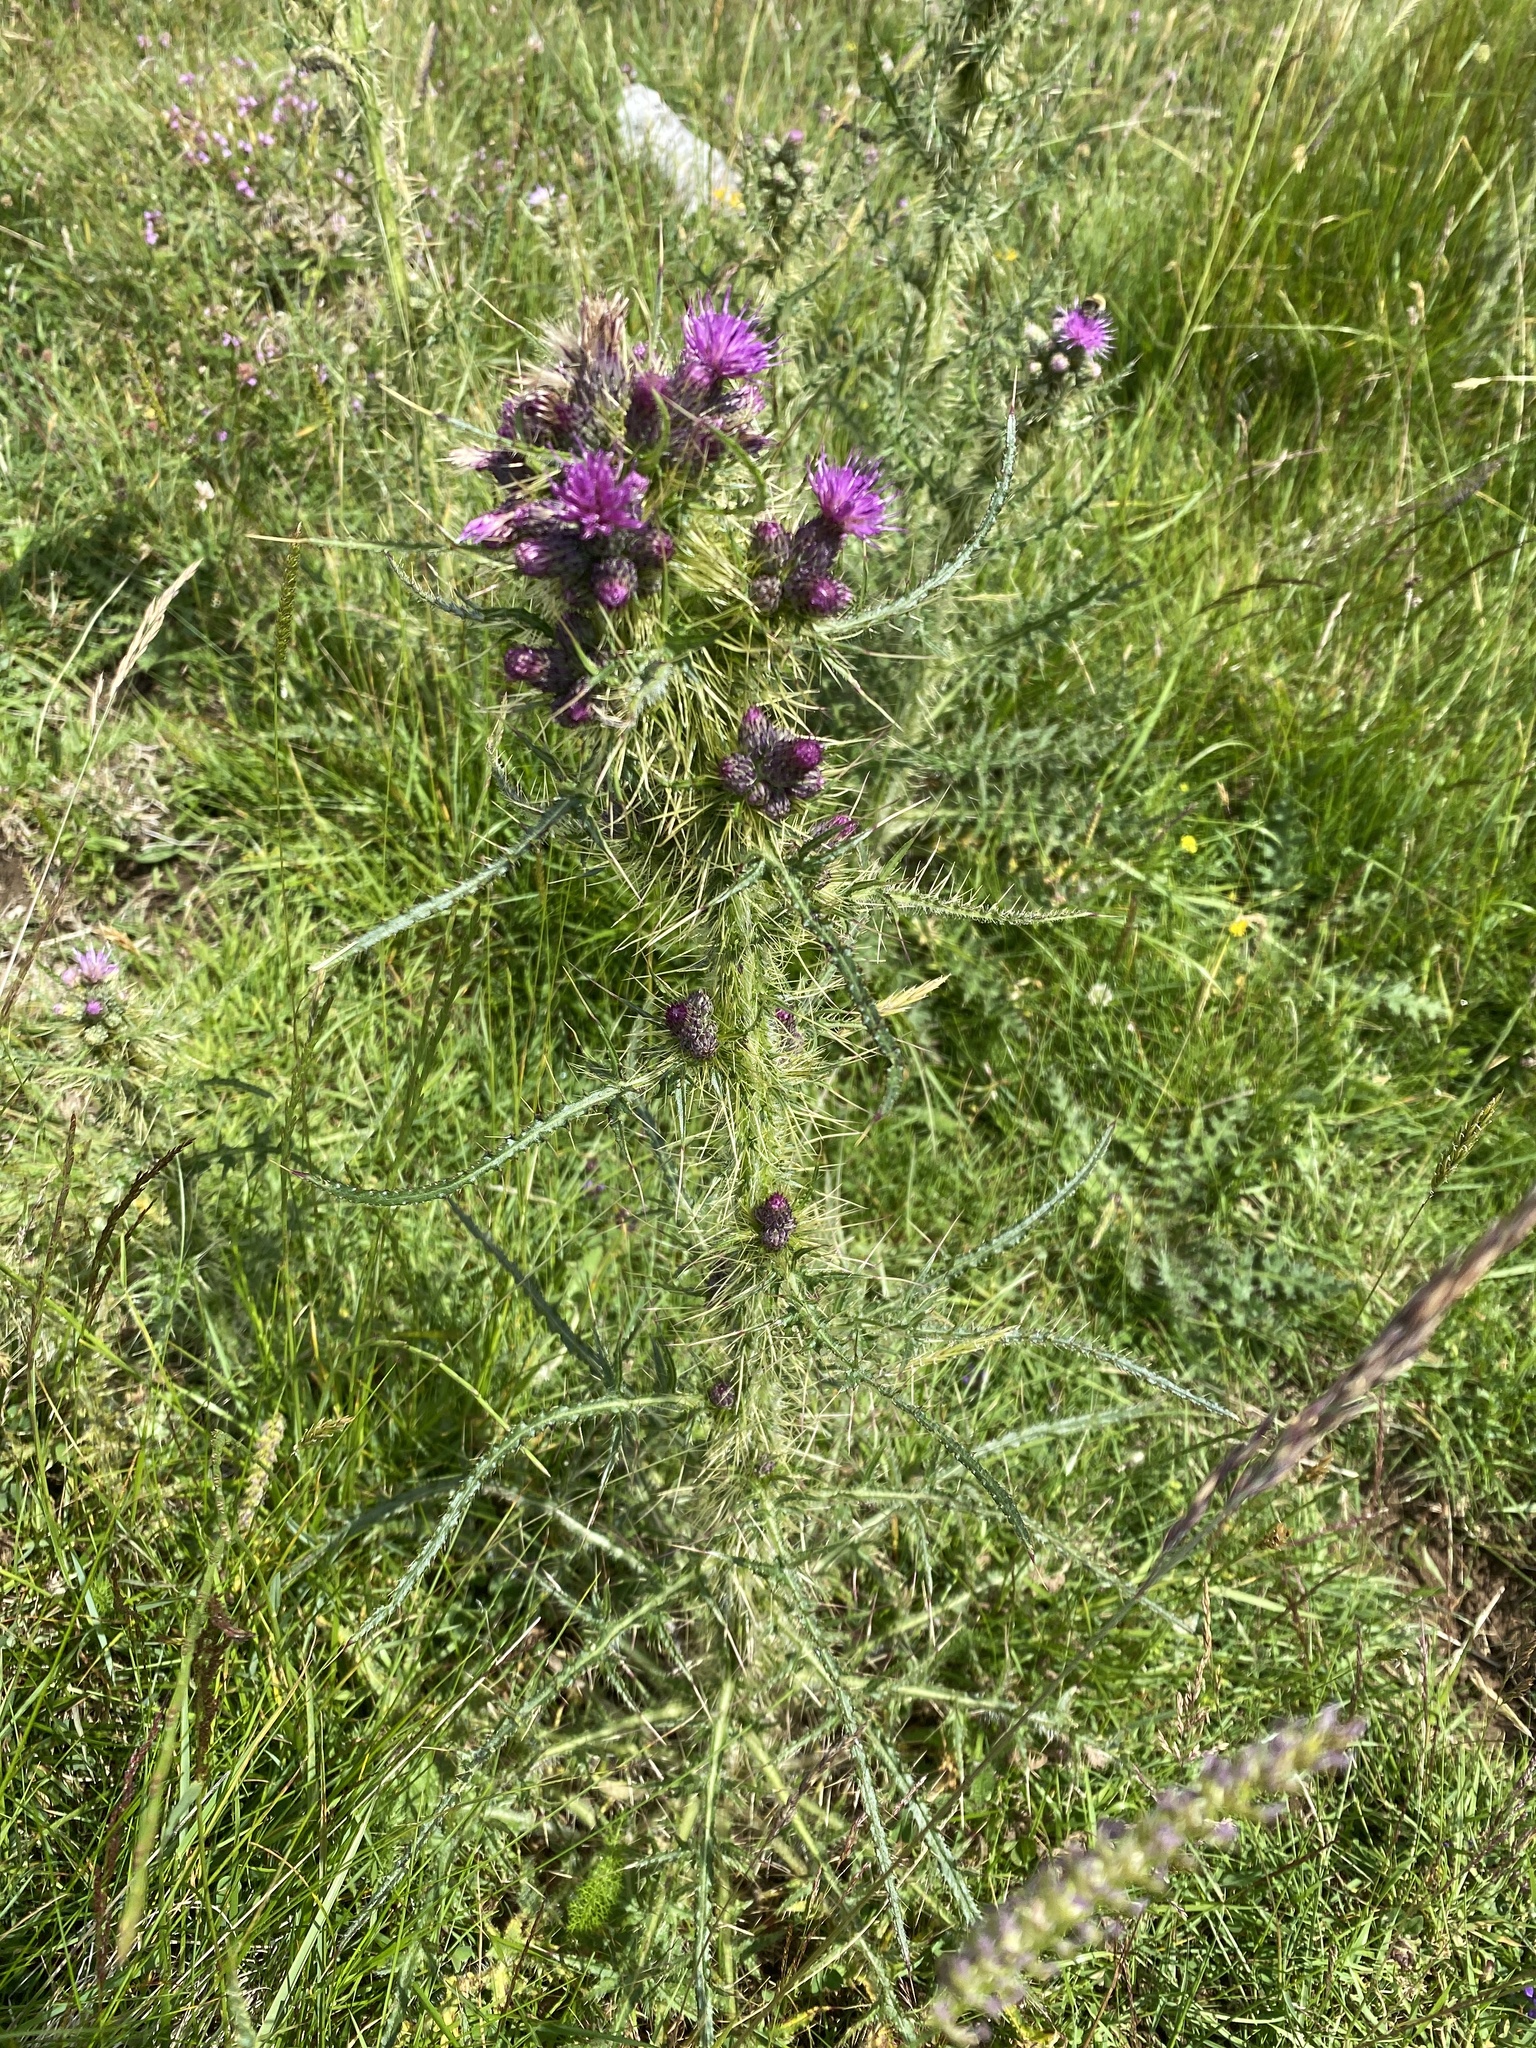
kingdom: Plantae
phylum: Tracheophyta
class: Magnoliopsida
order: Asterales
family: Asteraceae
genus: Cirsium
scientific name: Cirsium palustre
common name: Marsh thistle
